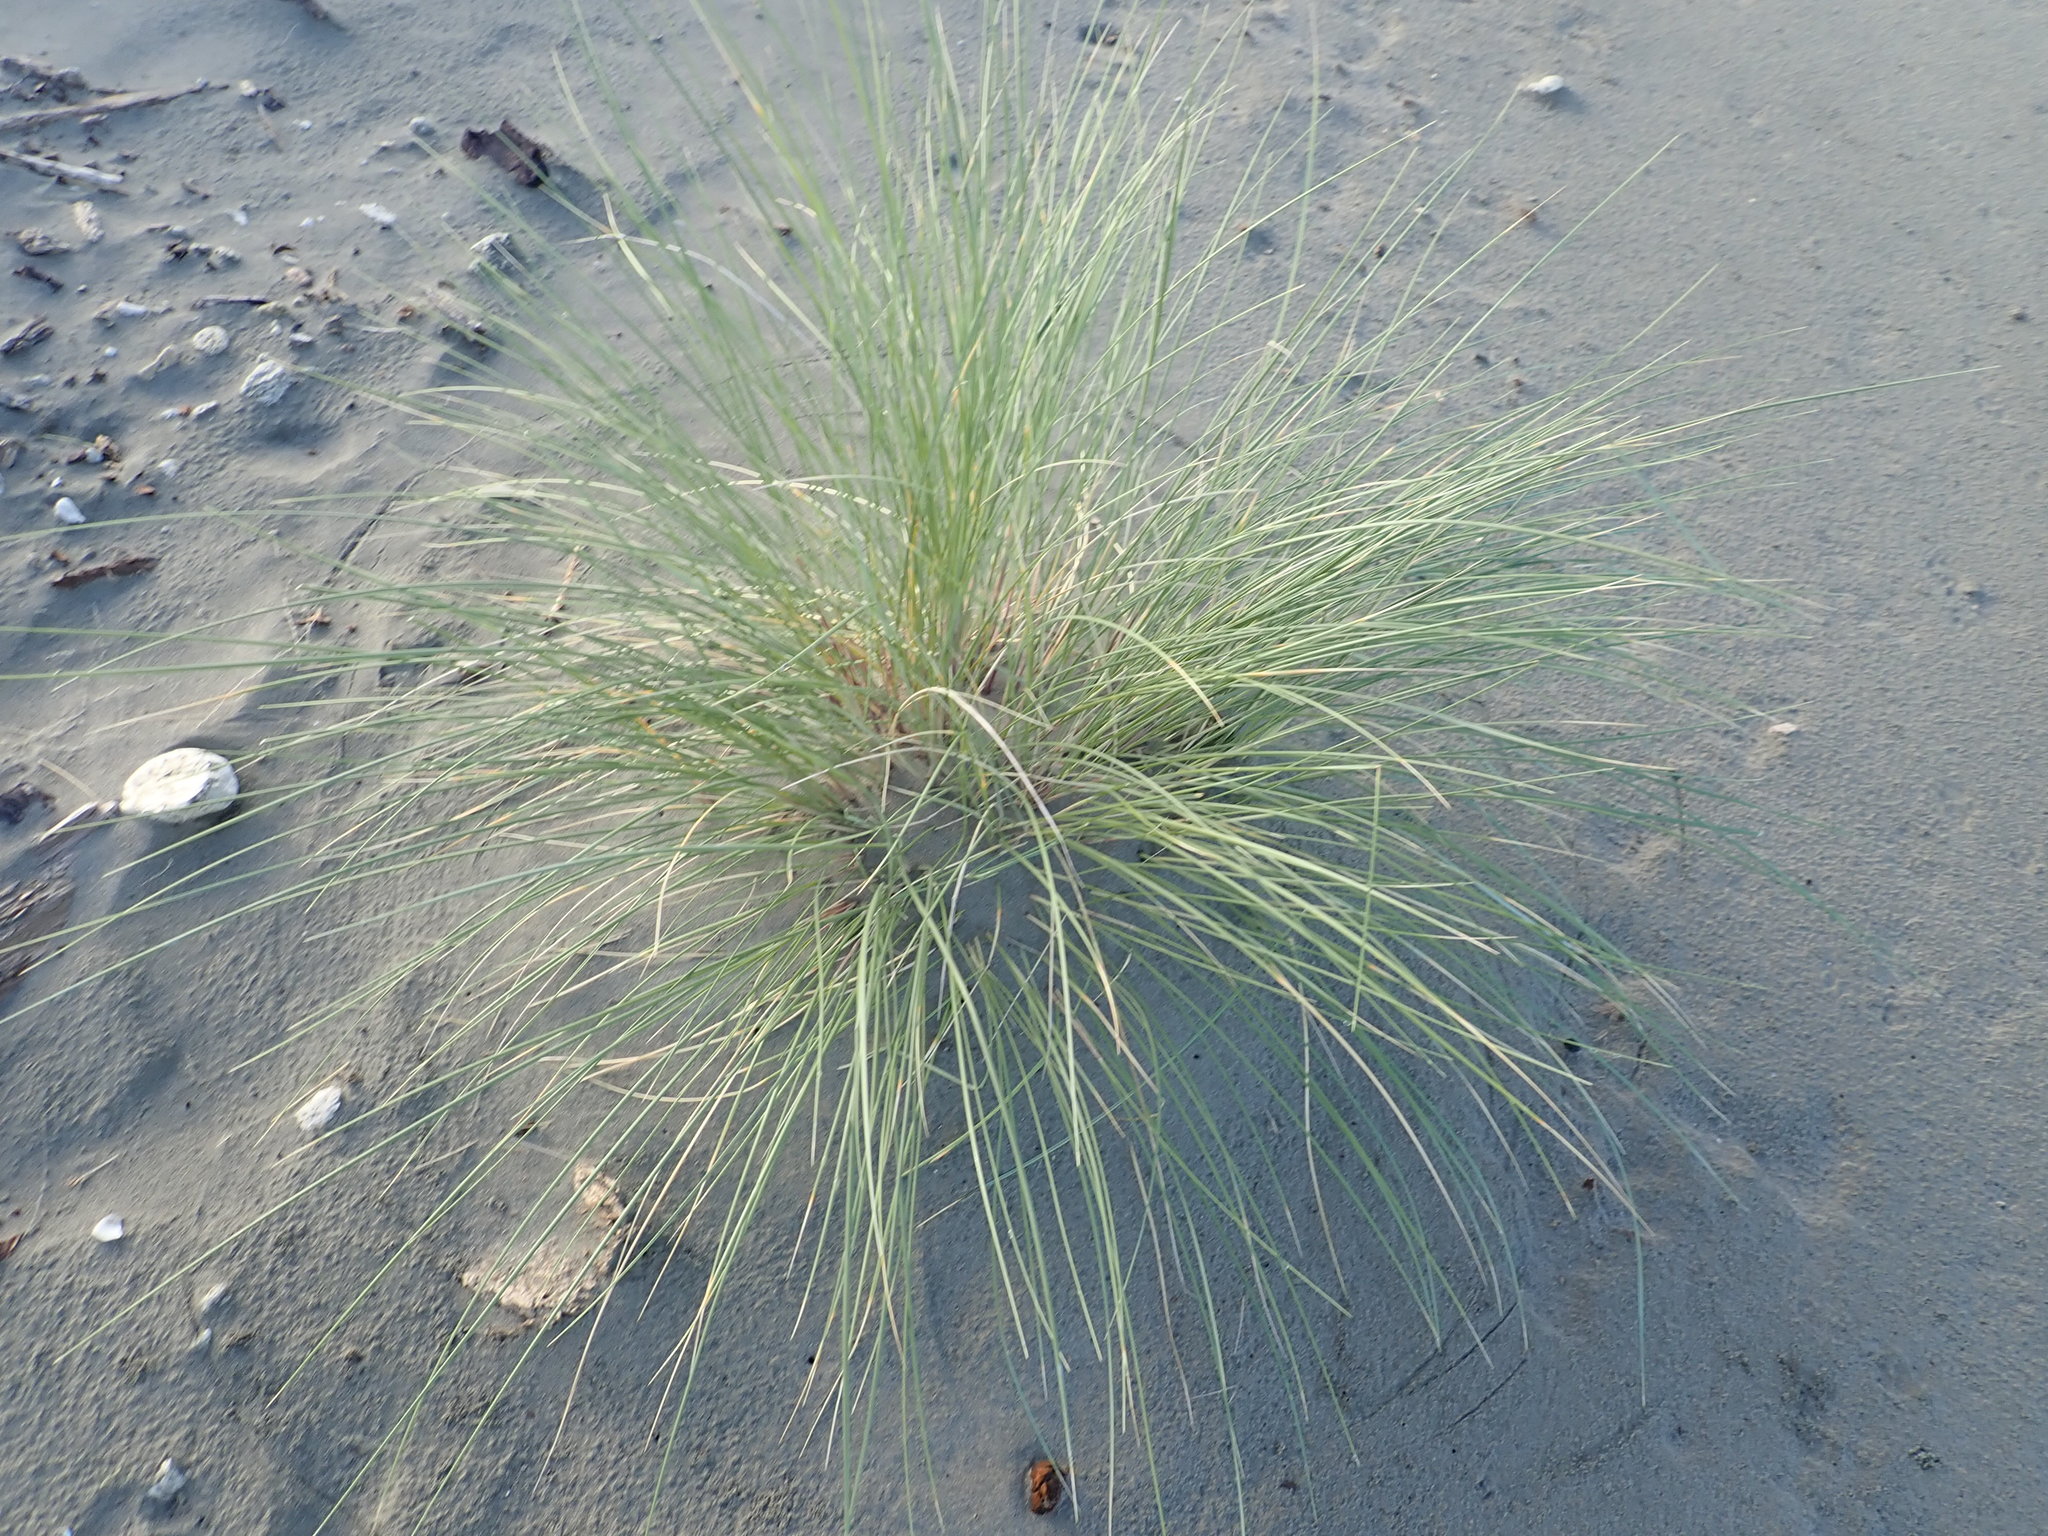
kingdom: Plantae
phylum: Tracheophyta
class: Liliopsida
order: Poales
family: Poaceae
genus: Calamagrostis
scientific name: Calamagrostis arenaria
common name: European beachgrass
